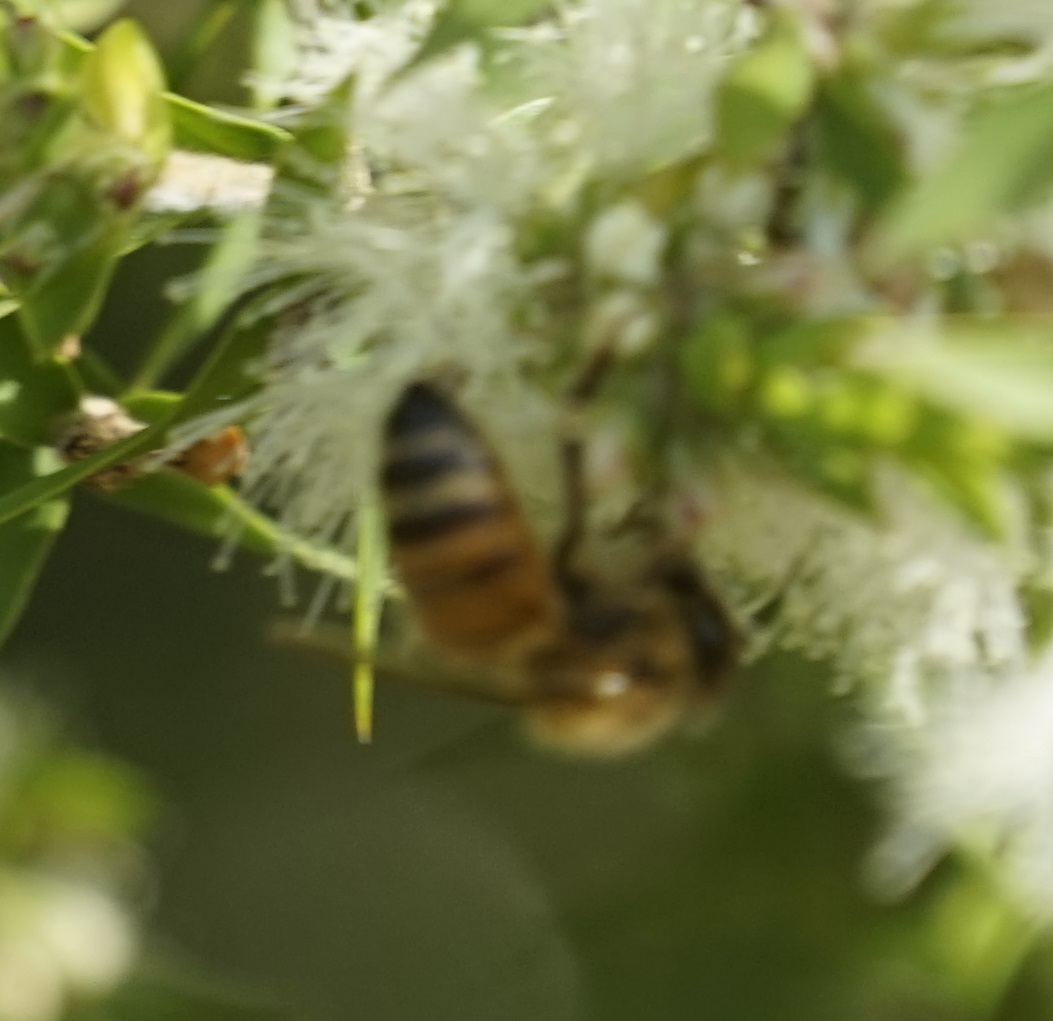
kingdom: Animalia
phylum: Arthropoda
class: Insecta
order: Hymenoptera
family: Apidae
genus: Apis
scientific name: Apis mellifera
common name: Honey bee
